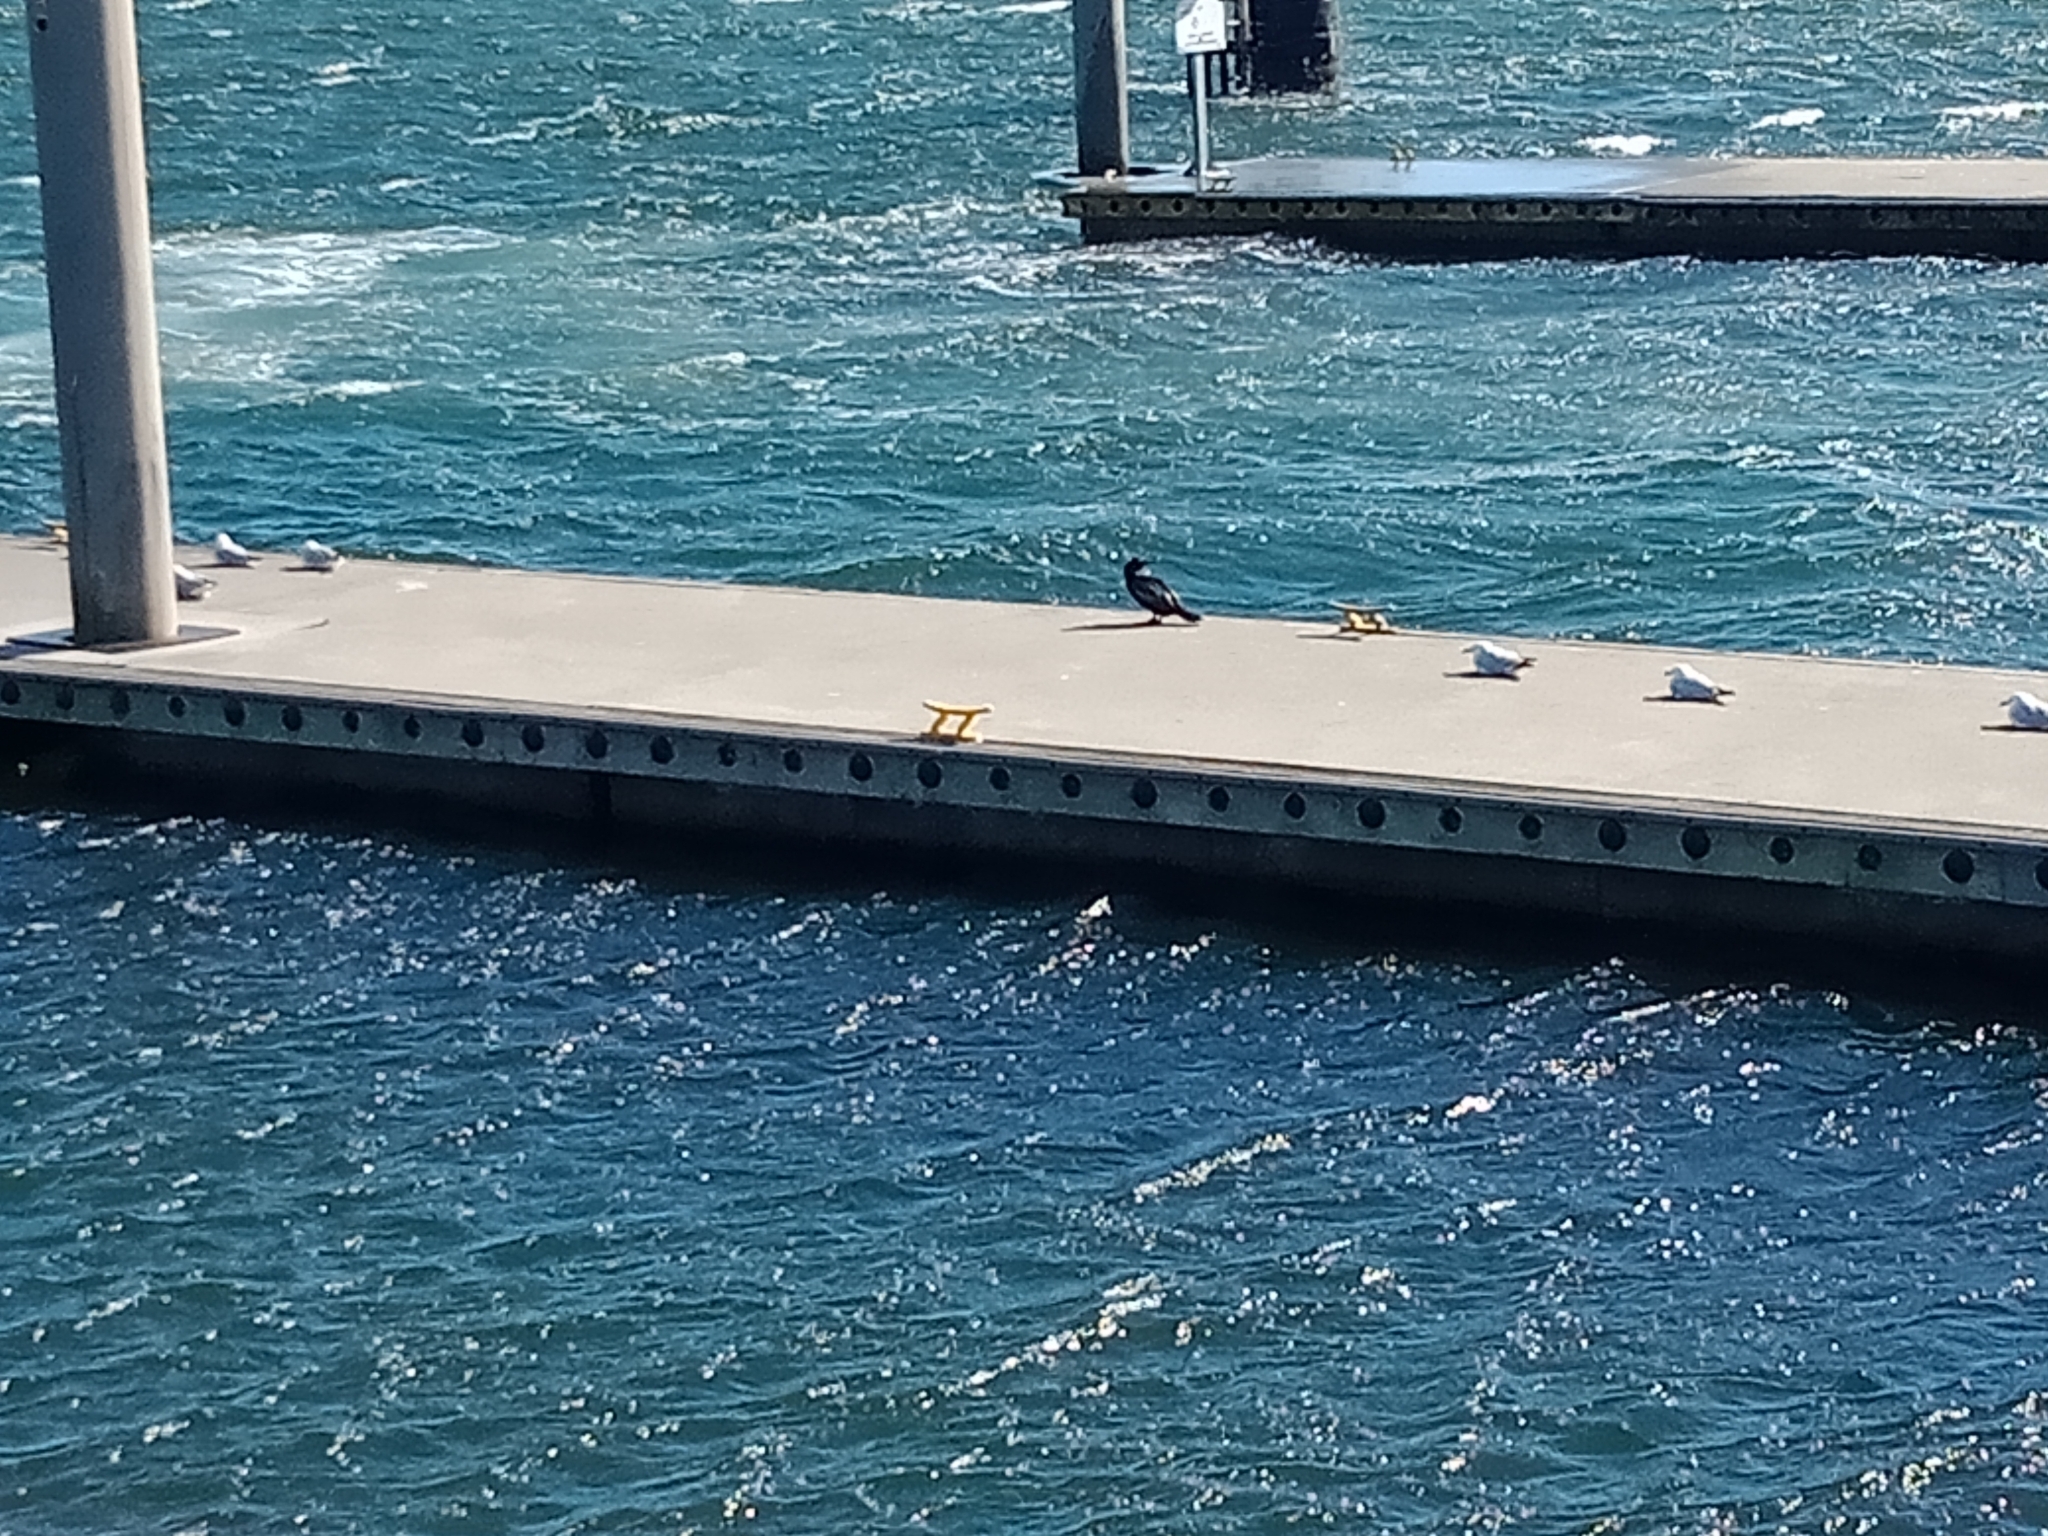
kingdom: Animalia
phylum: Chordata
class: Aves
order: Charadriiformes
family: Laridae
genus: Chroicocephalus
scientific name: Chroicocephalus novaehollandiae
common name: Silver gull
